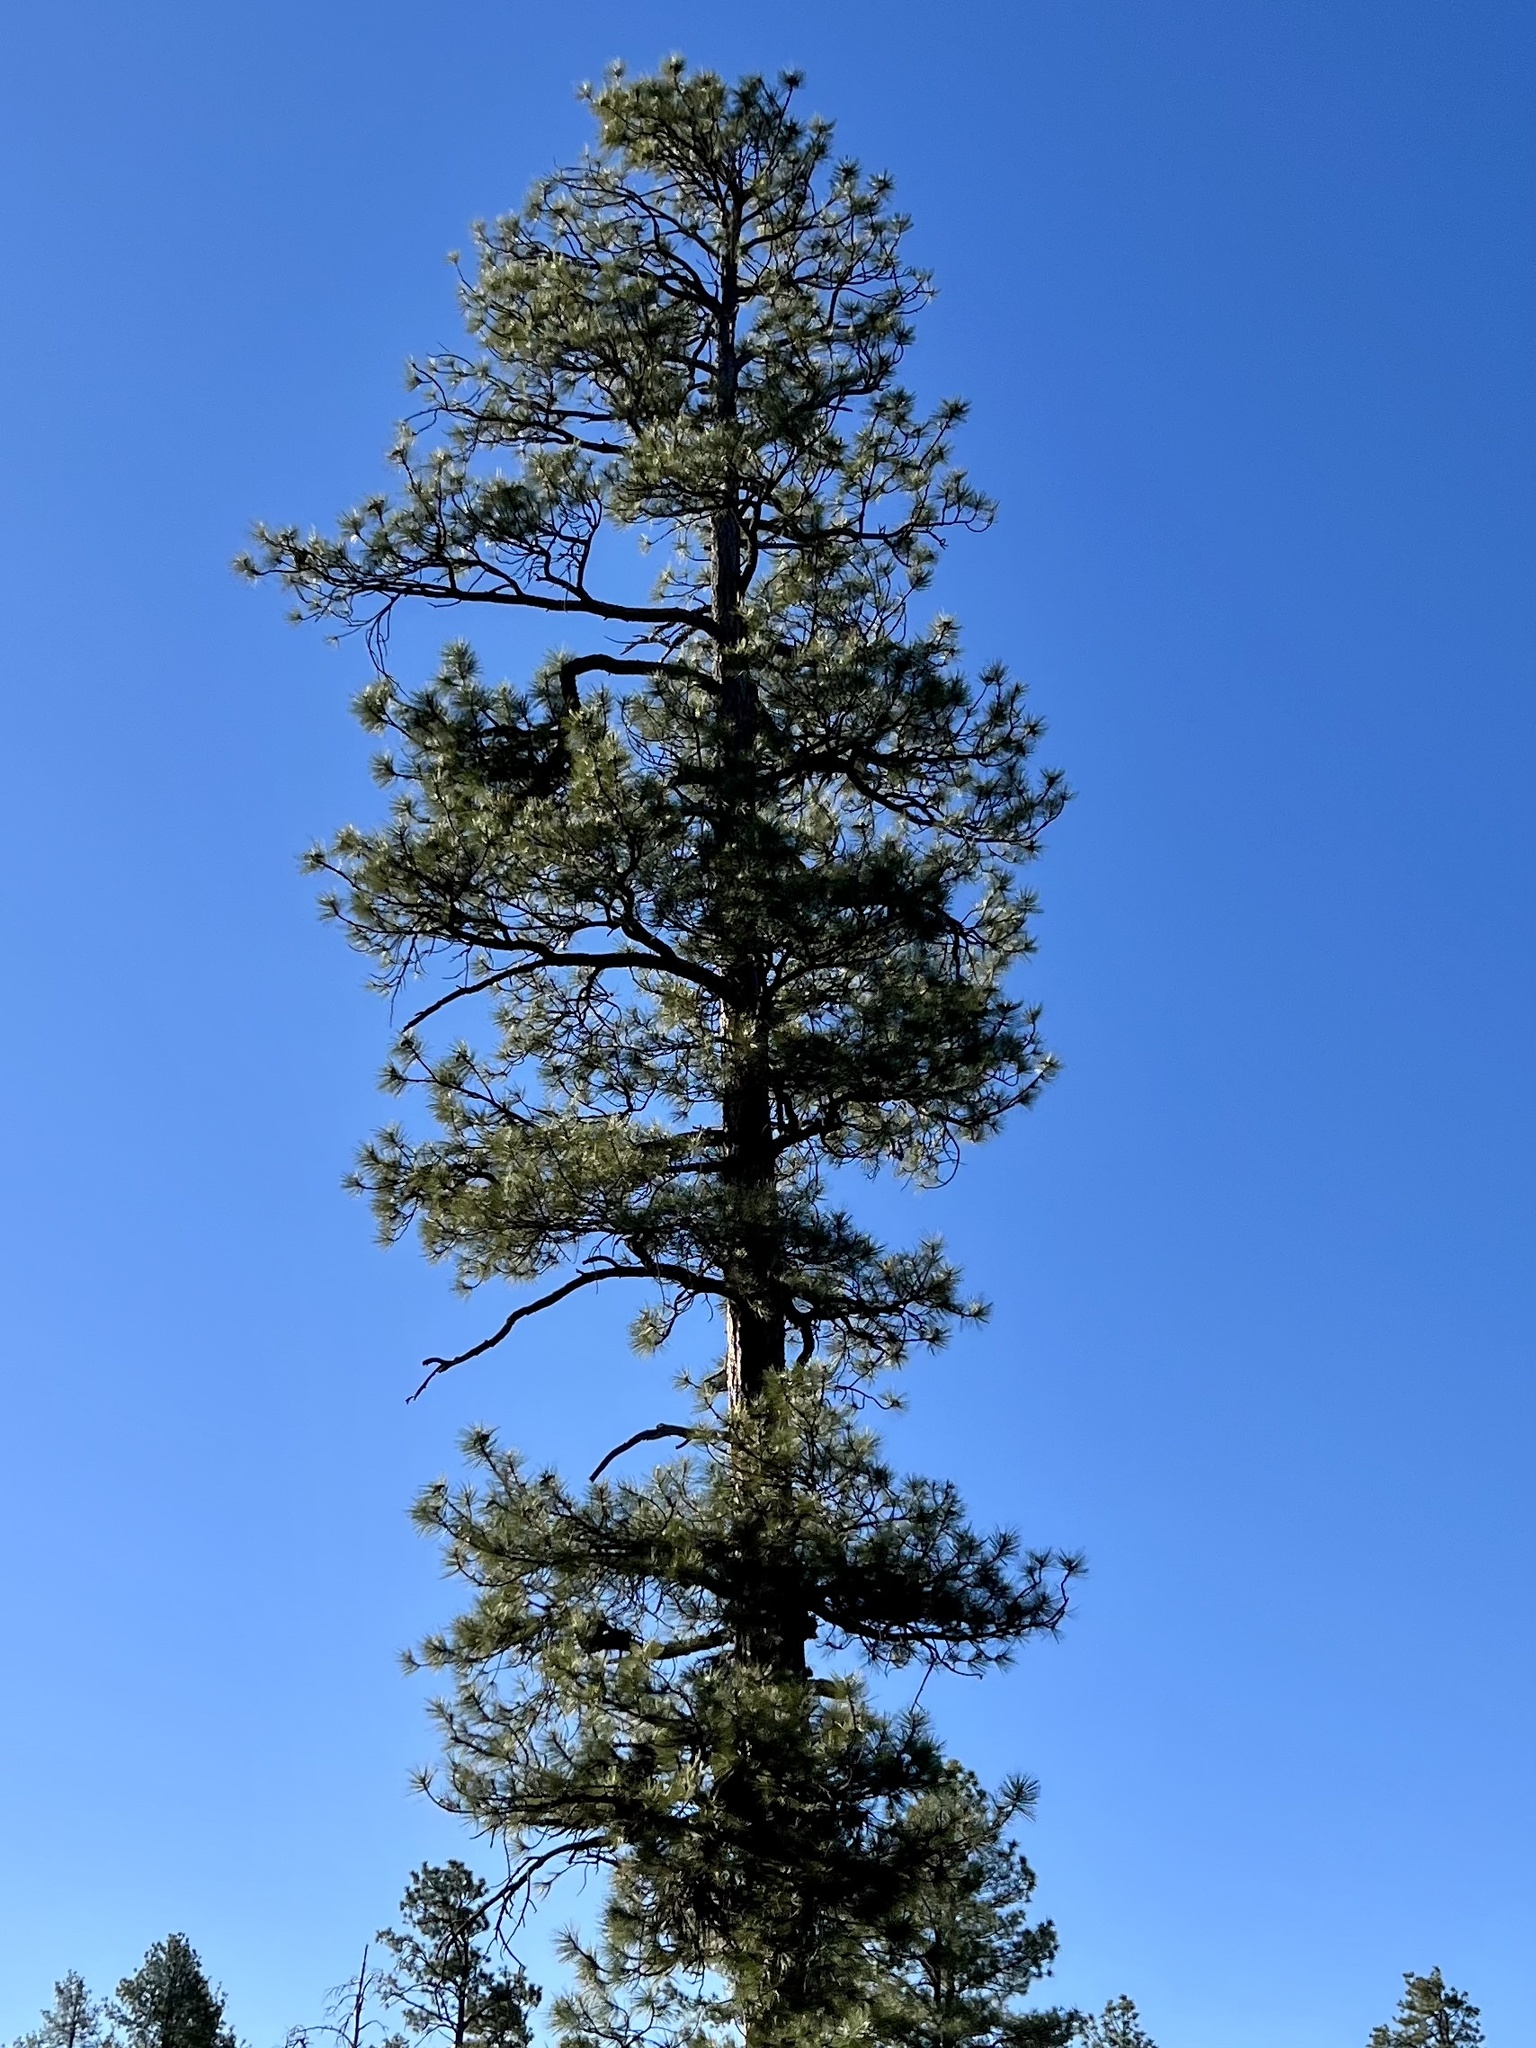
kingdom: Plantae
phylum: Tracheophyta
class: Pinopsida
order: Pinales
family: Pinaceae
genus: Pinus
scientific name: Pinus ponderosa
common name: Western yellow-pine
